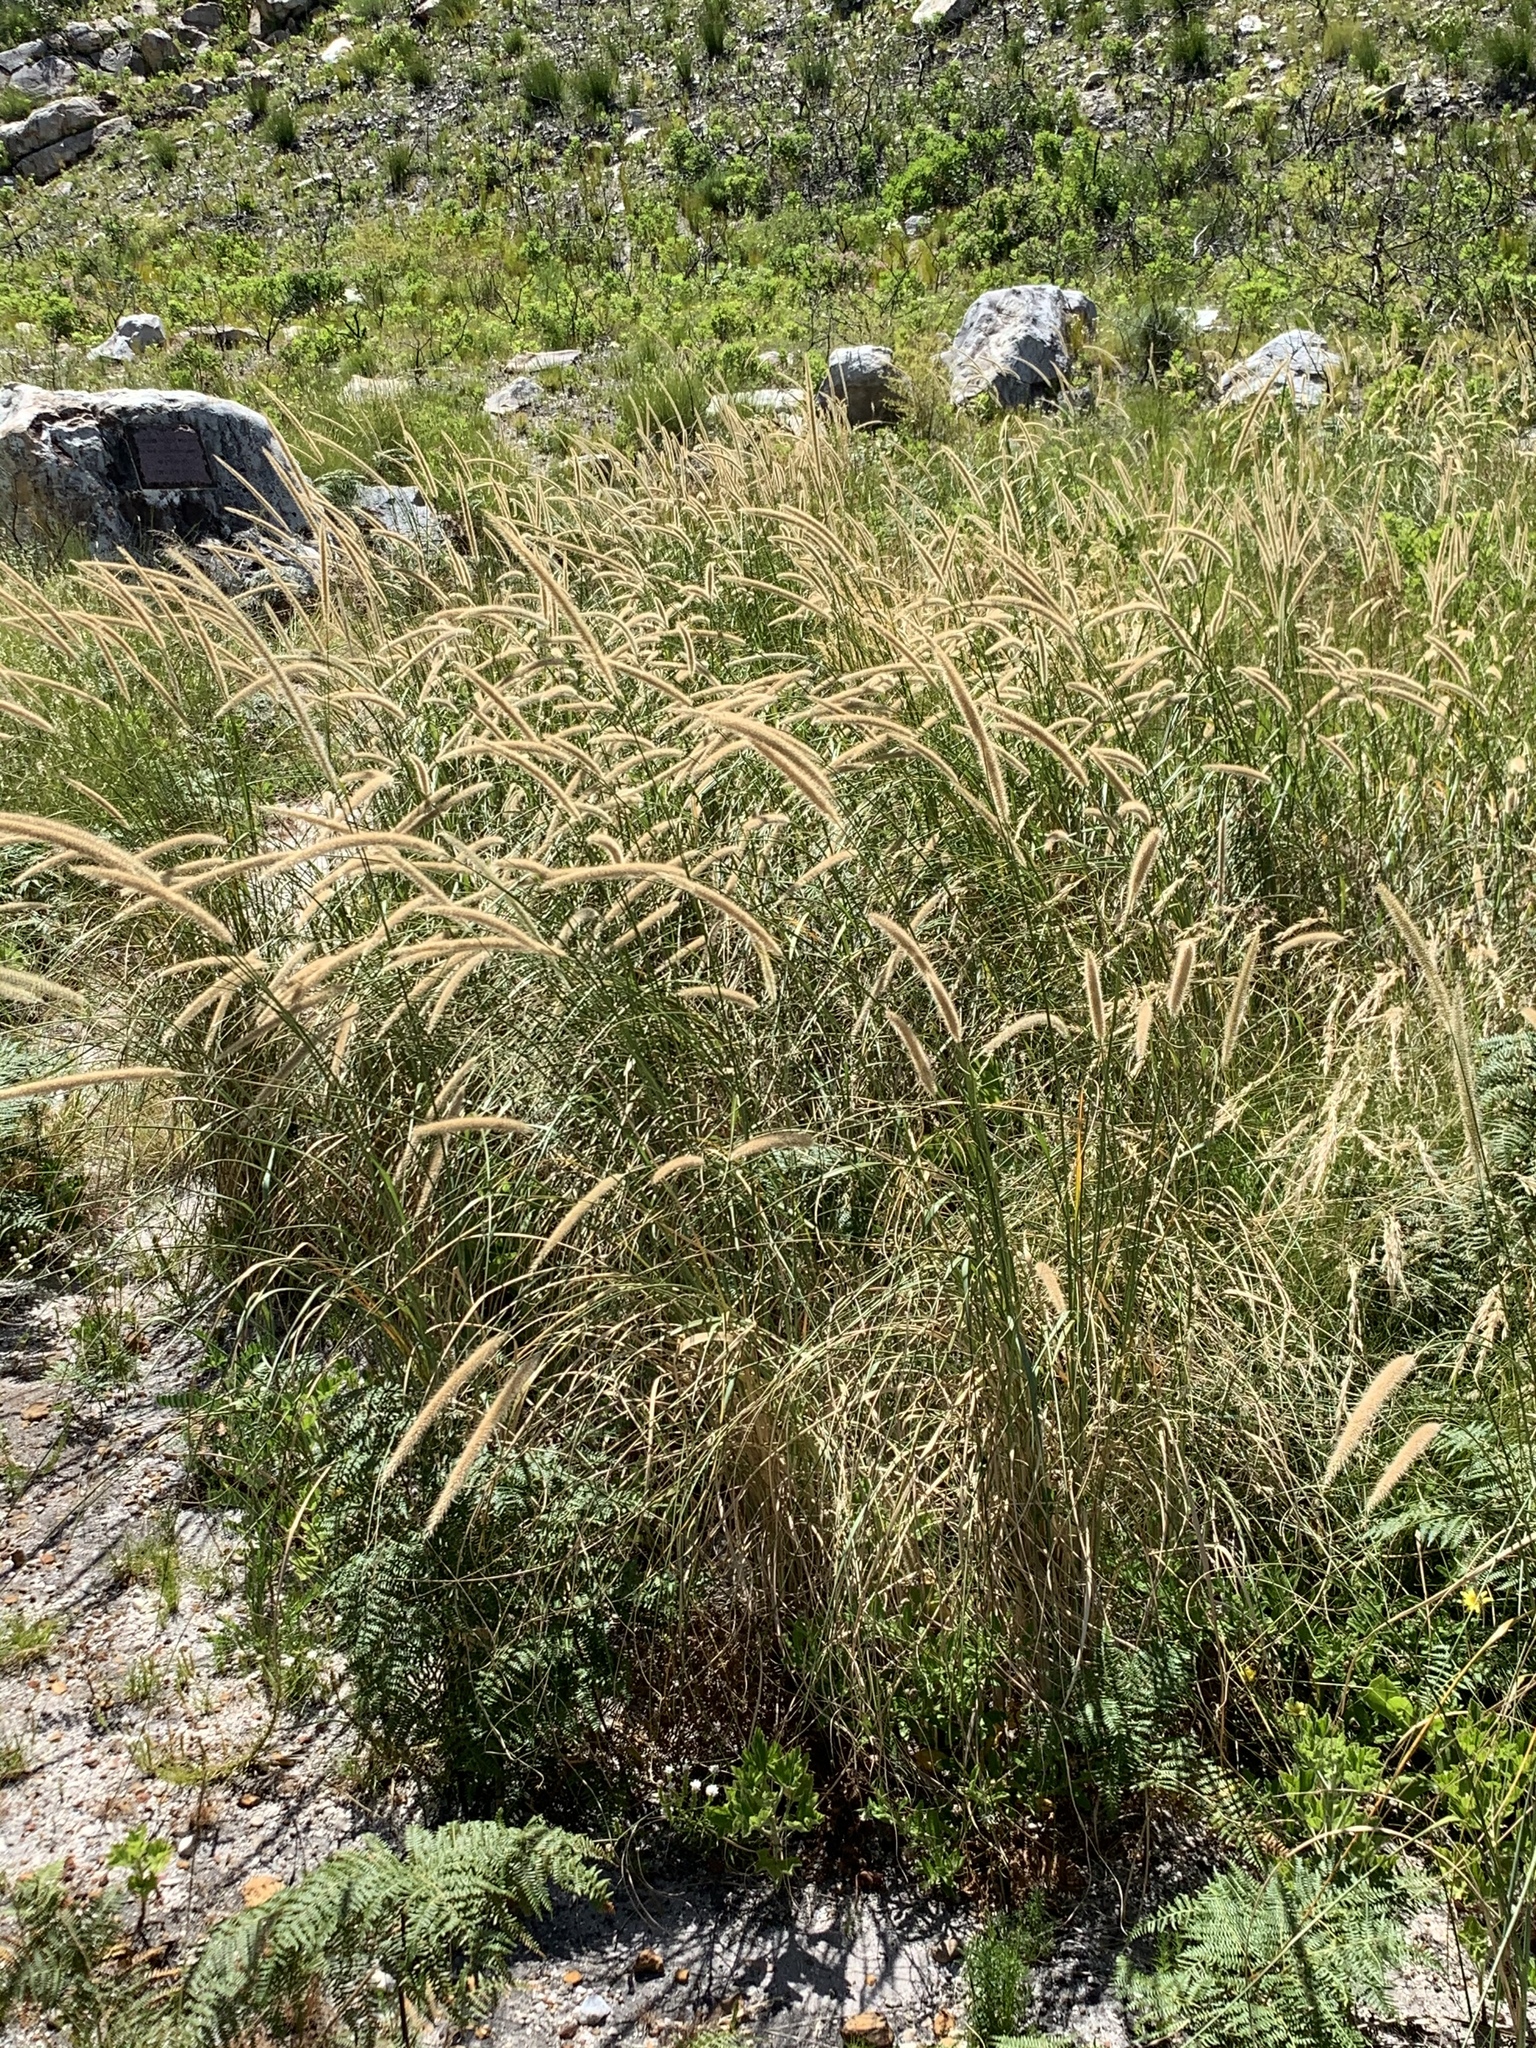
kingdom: Plantae
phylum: Tracheophyta
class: Liliopsida
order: Poales
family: Poaceae
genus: Cenchrus
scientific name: Cenchrus caudatus
